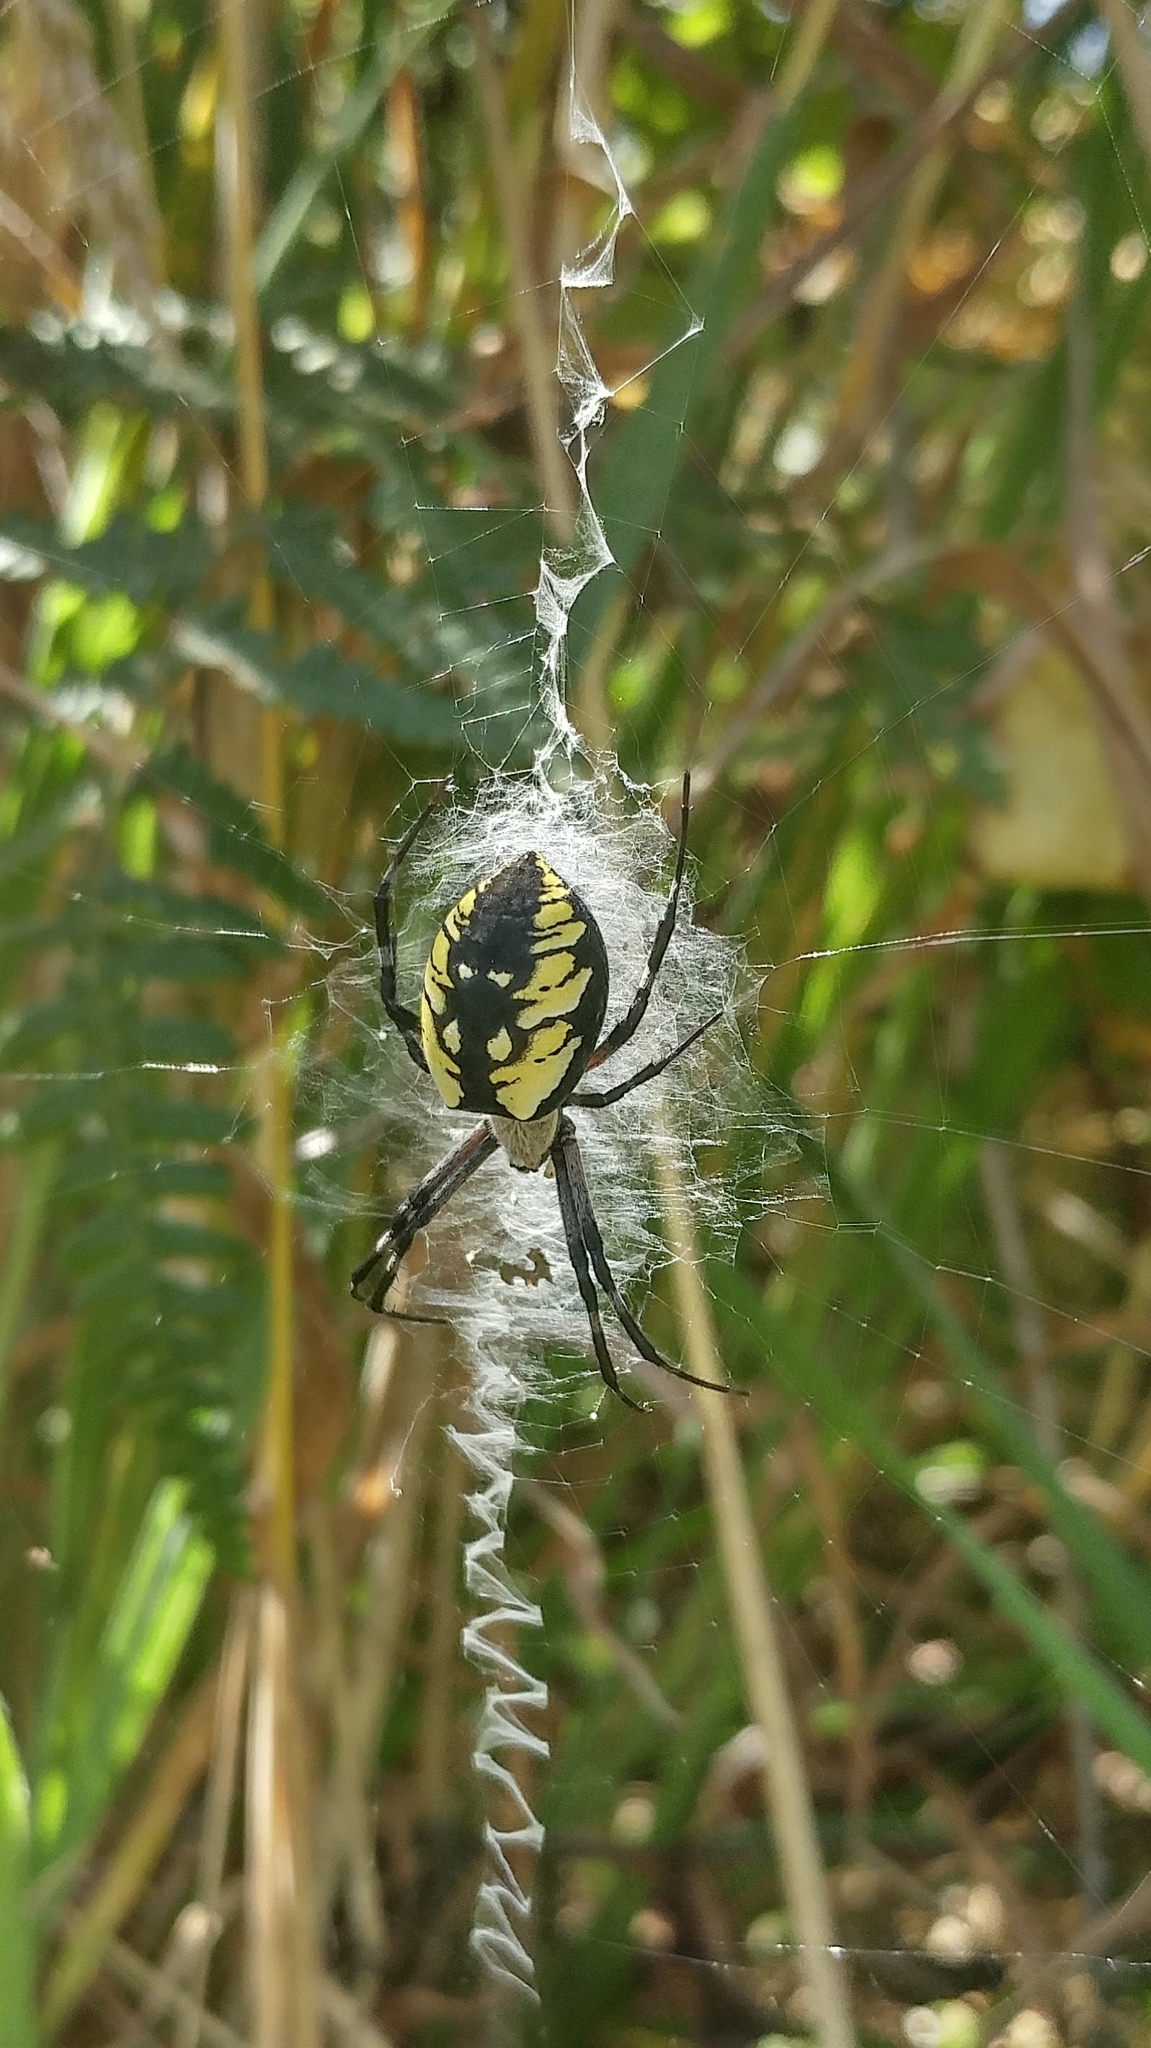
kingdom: Animalia
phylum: Arthropoda
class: Arachnida
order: Araneae
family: Araneidae
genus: Argiope
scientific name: Argiope aurantia
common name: Orb weavers
